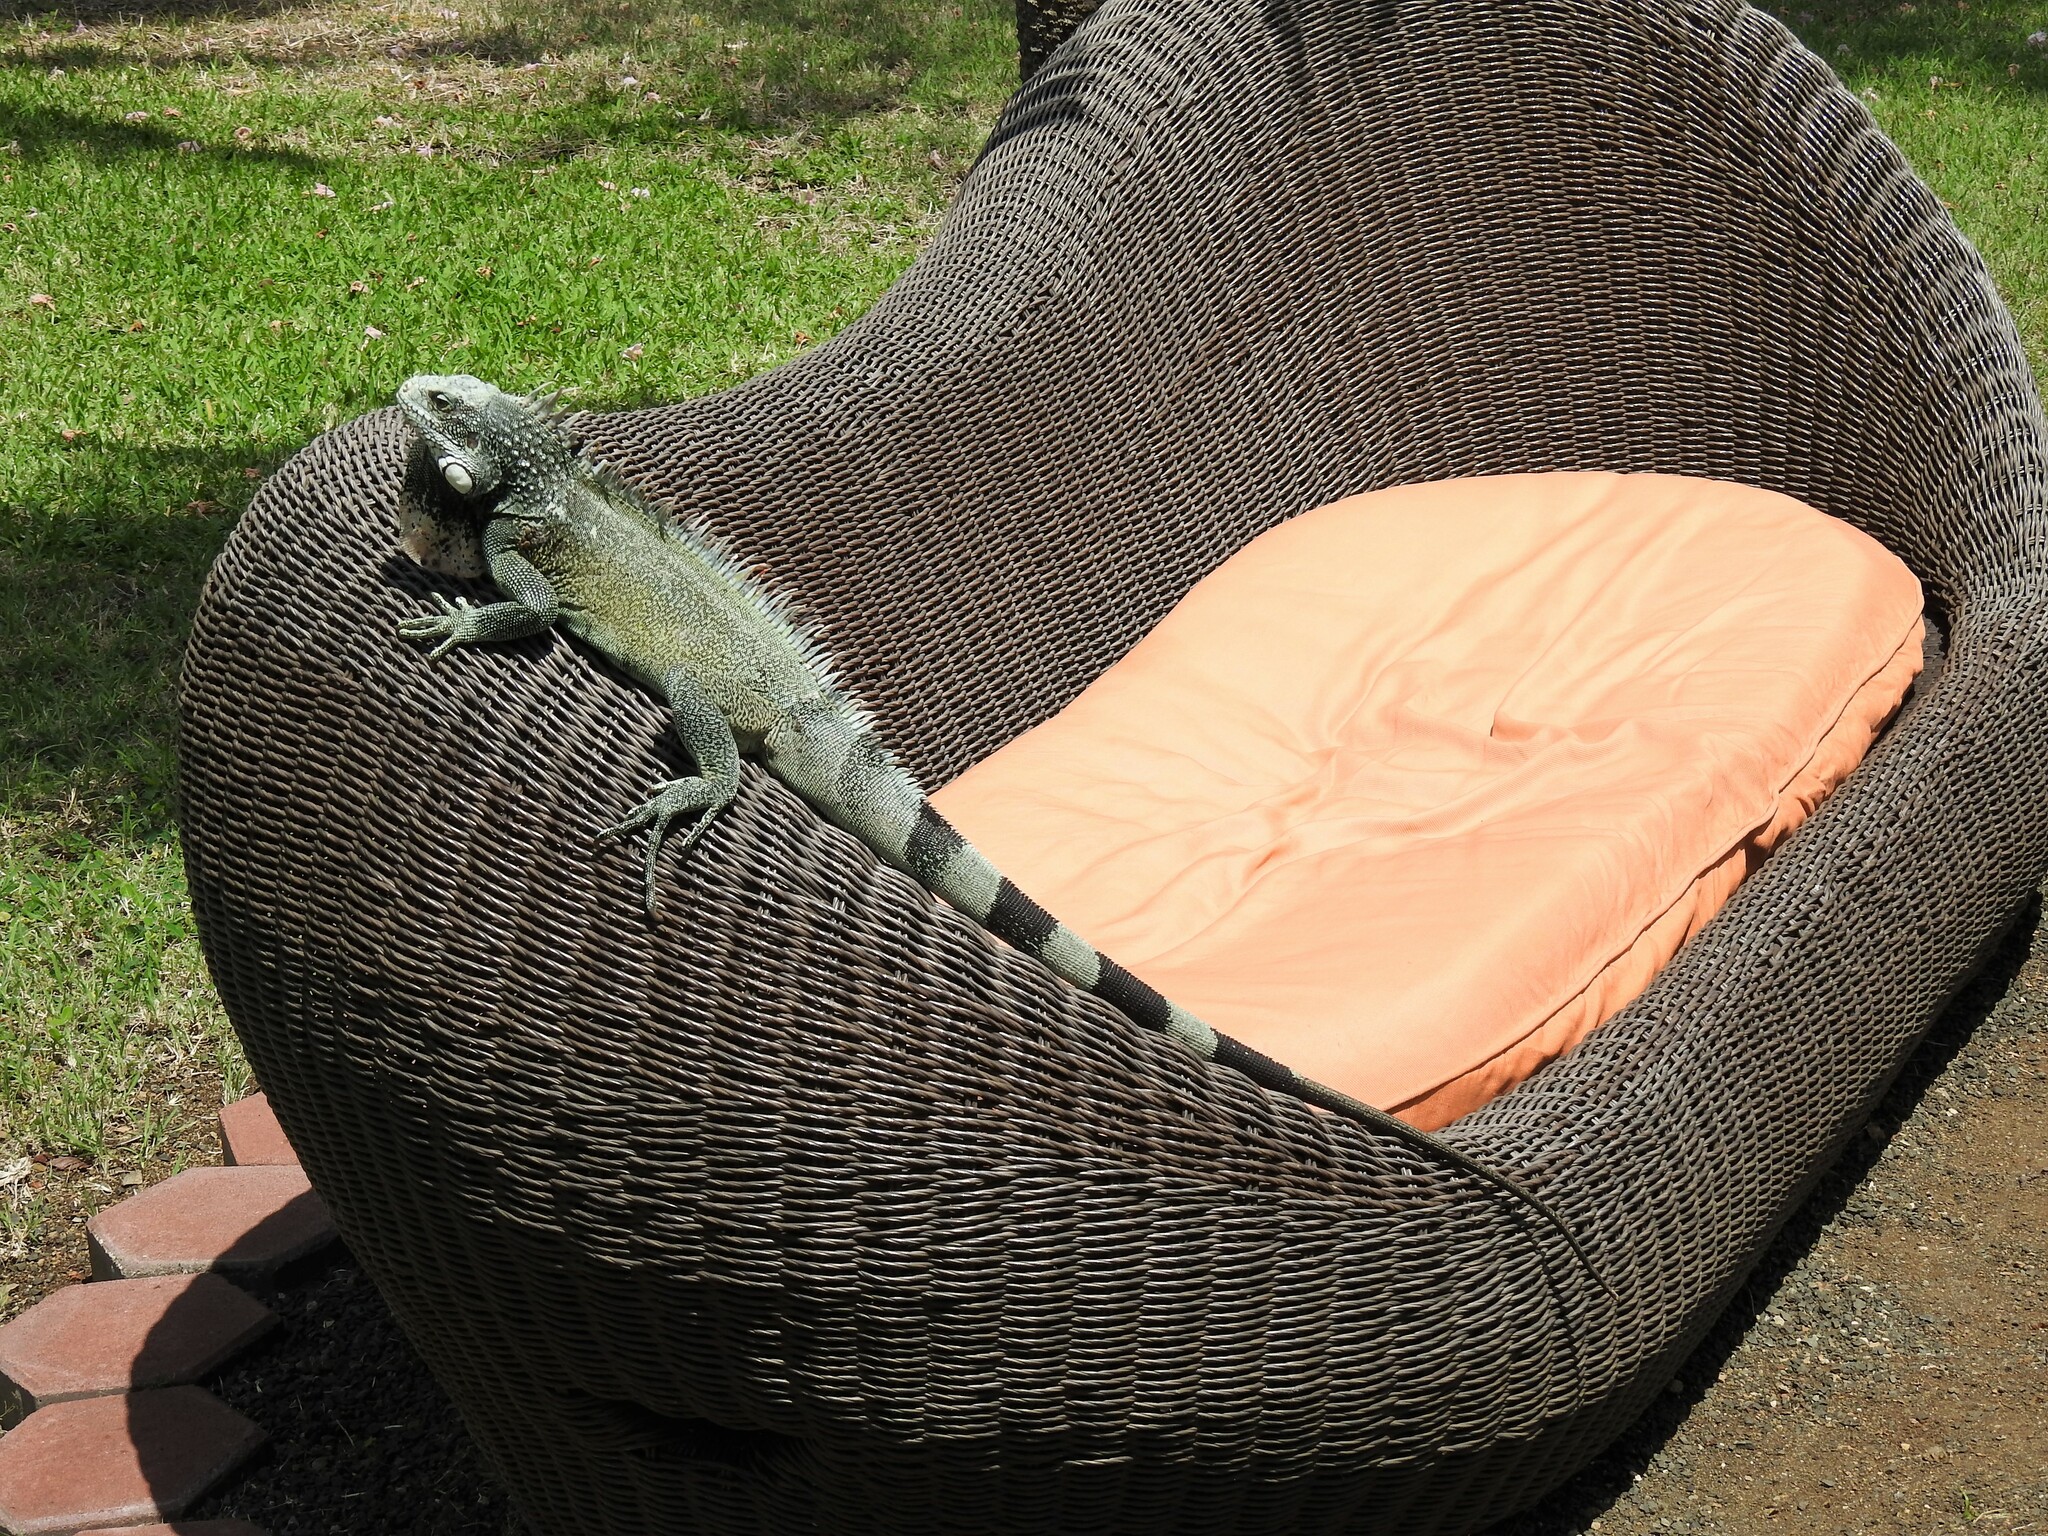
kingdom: Animalia
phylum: Chordata
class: Squamata
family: Iguanidae
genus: Iguana
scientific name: Iguana iguana
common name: Green iguana
